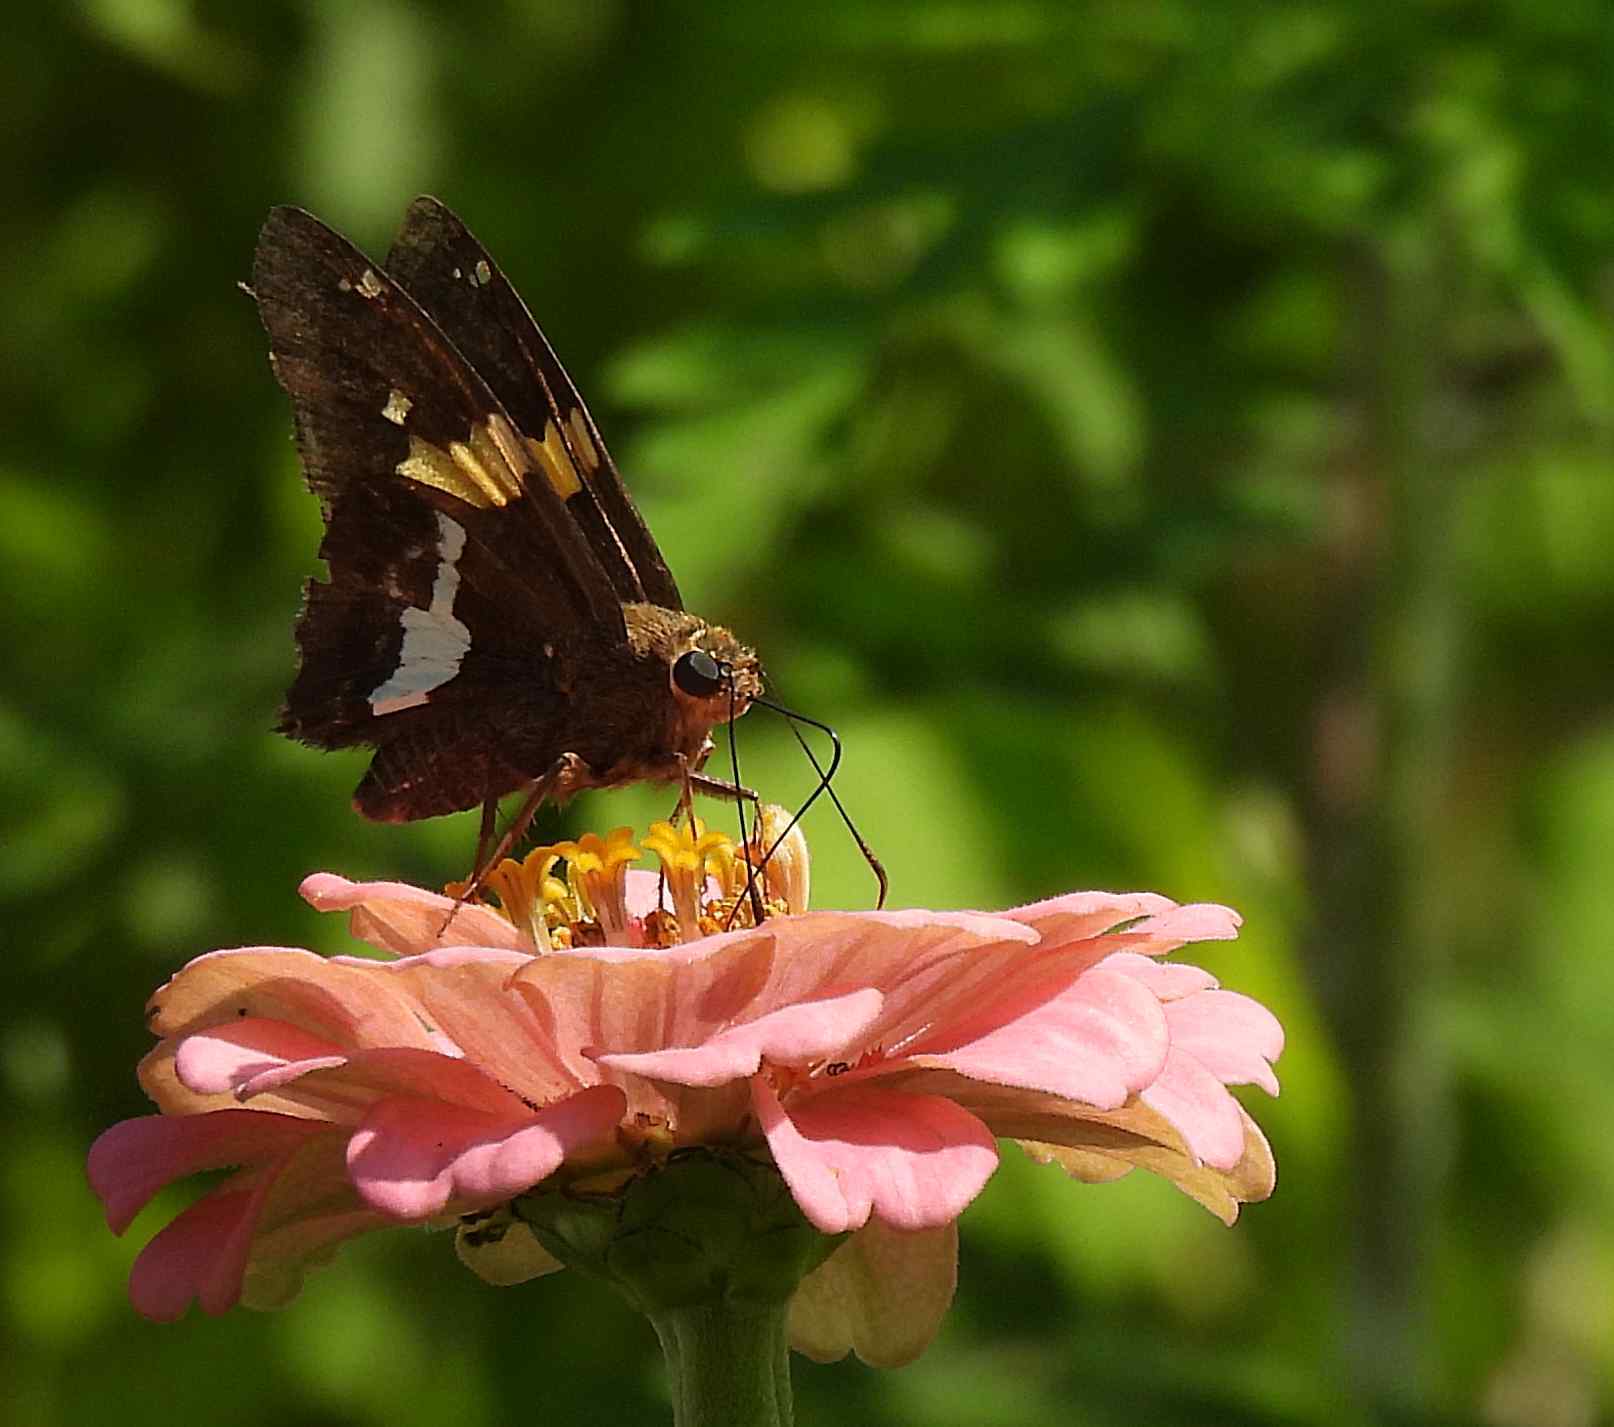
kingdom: Animalia
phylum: Arthropoda
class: Insecta
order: Lepidoptera
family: Hesperiidae
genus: Epargyreus
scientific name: Epargyreus clarus
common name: Silver-spotted skipper
